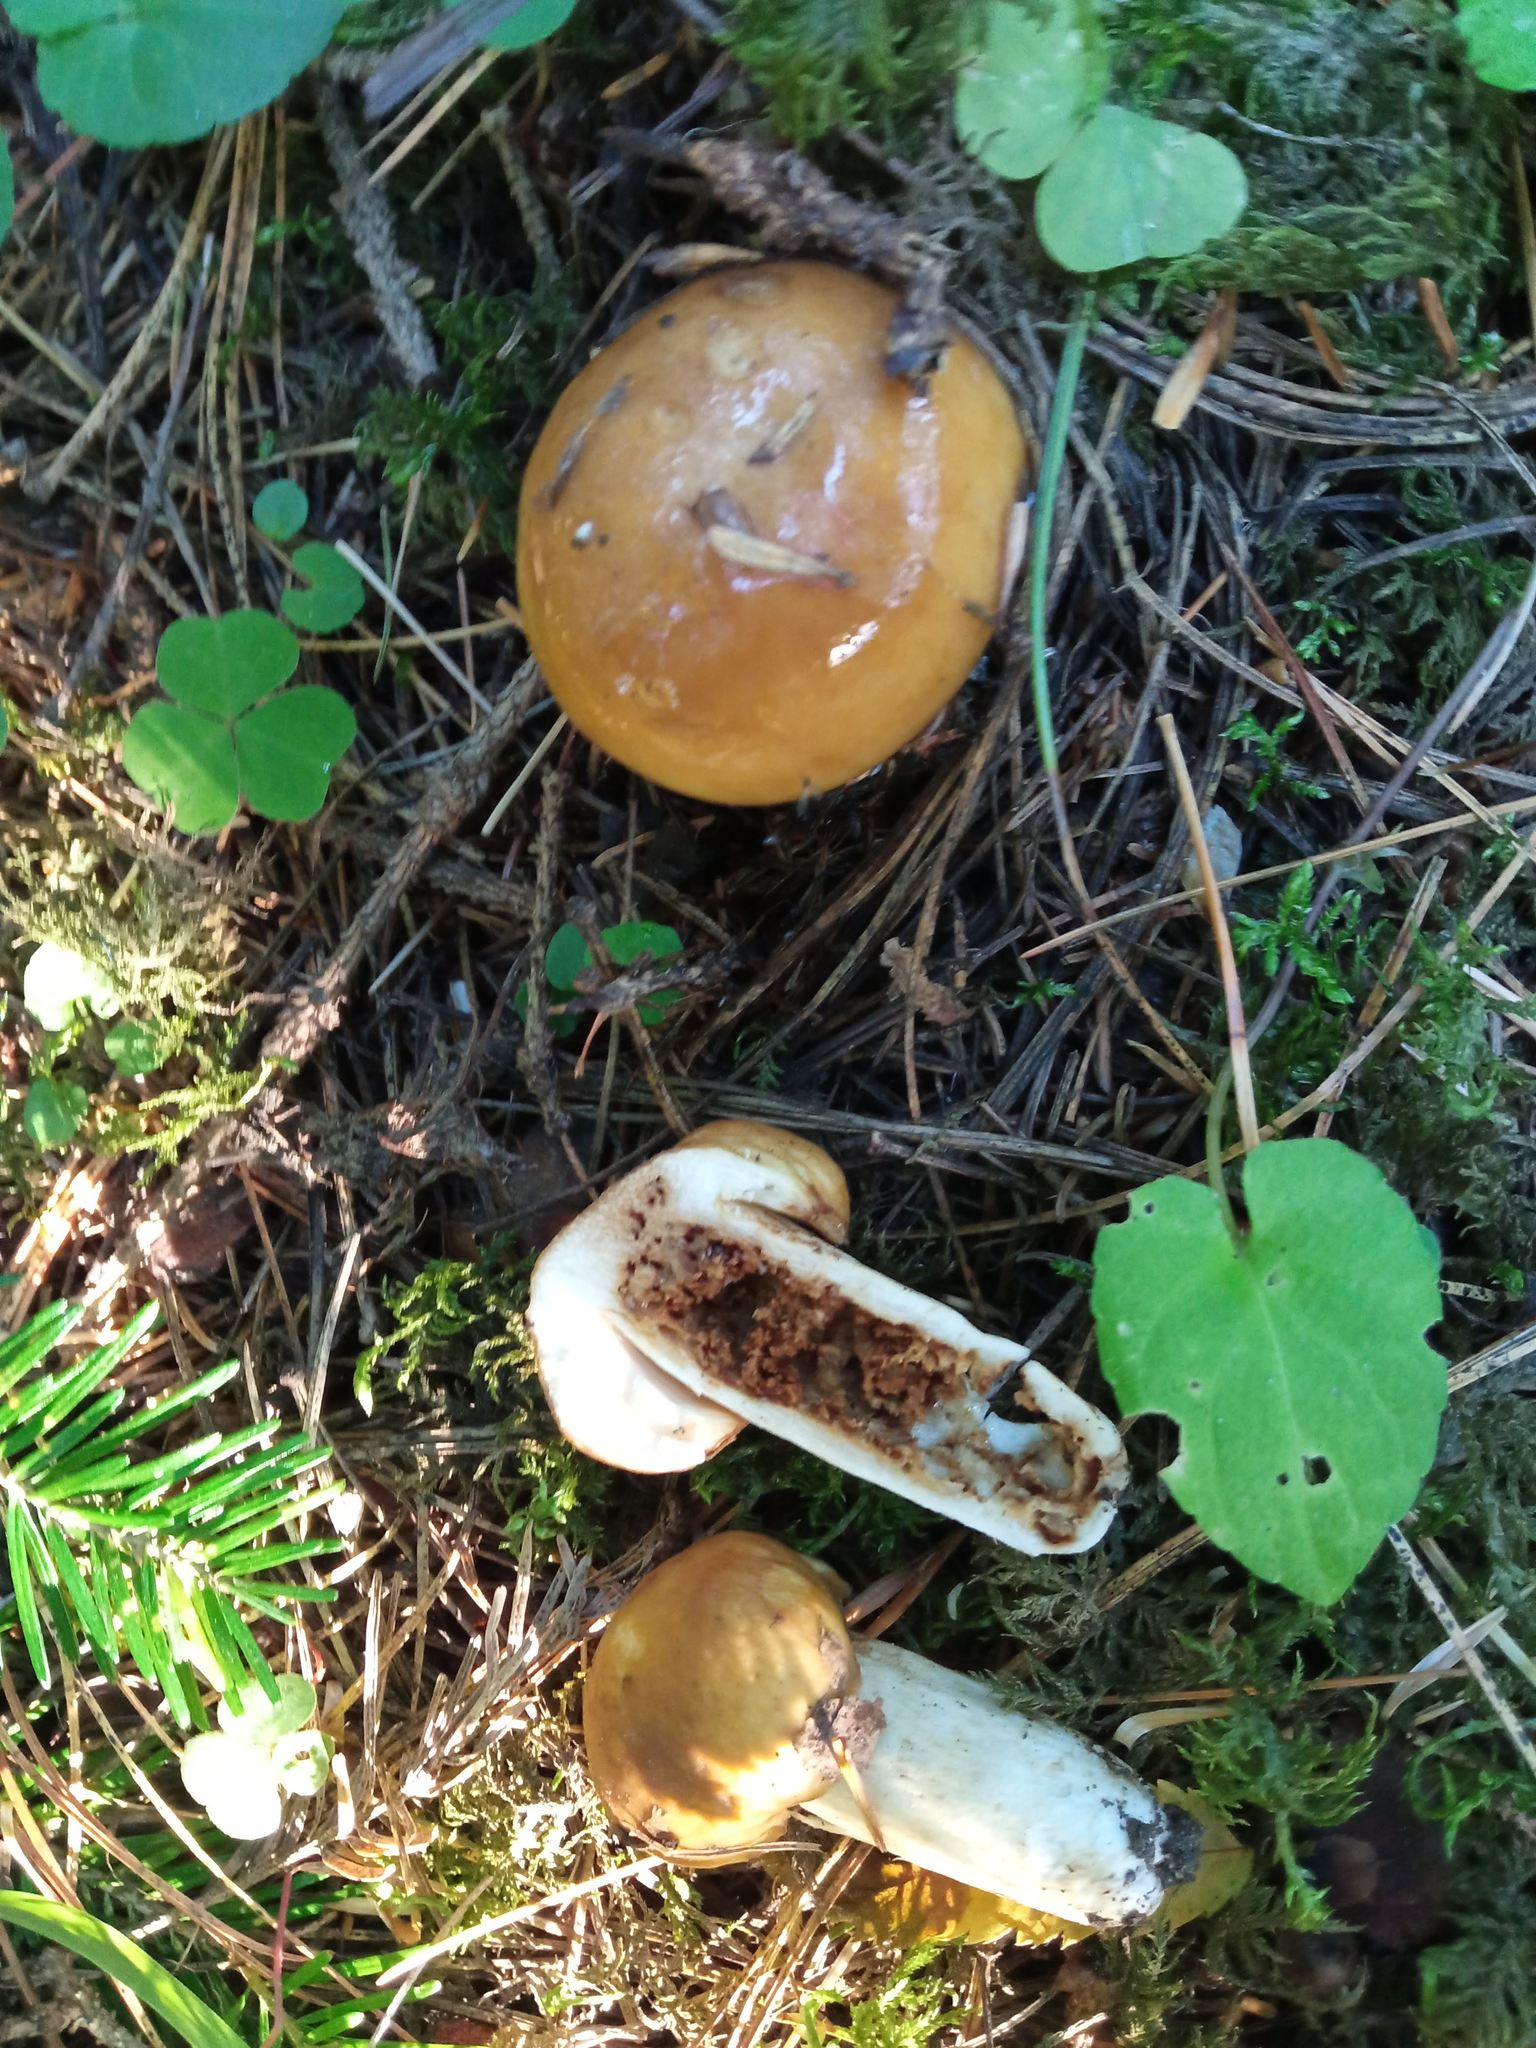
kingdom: Fungi
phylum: Basidiomycota
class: Agaricomycetes
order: Russulales
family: Russulaceae
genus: Russula
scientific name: Russula foetens
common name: Foetid russula
